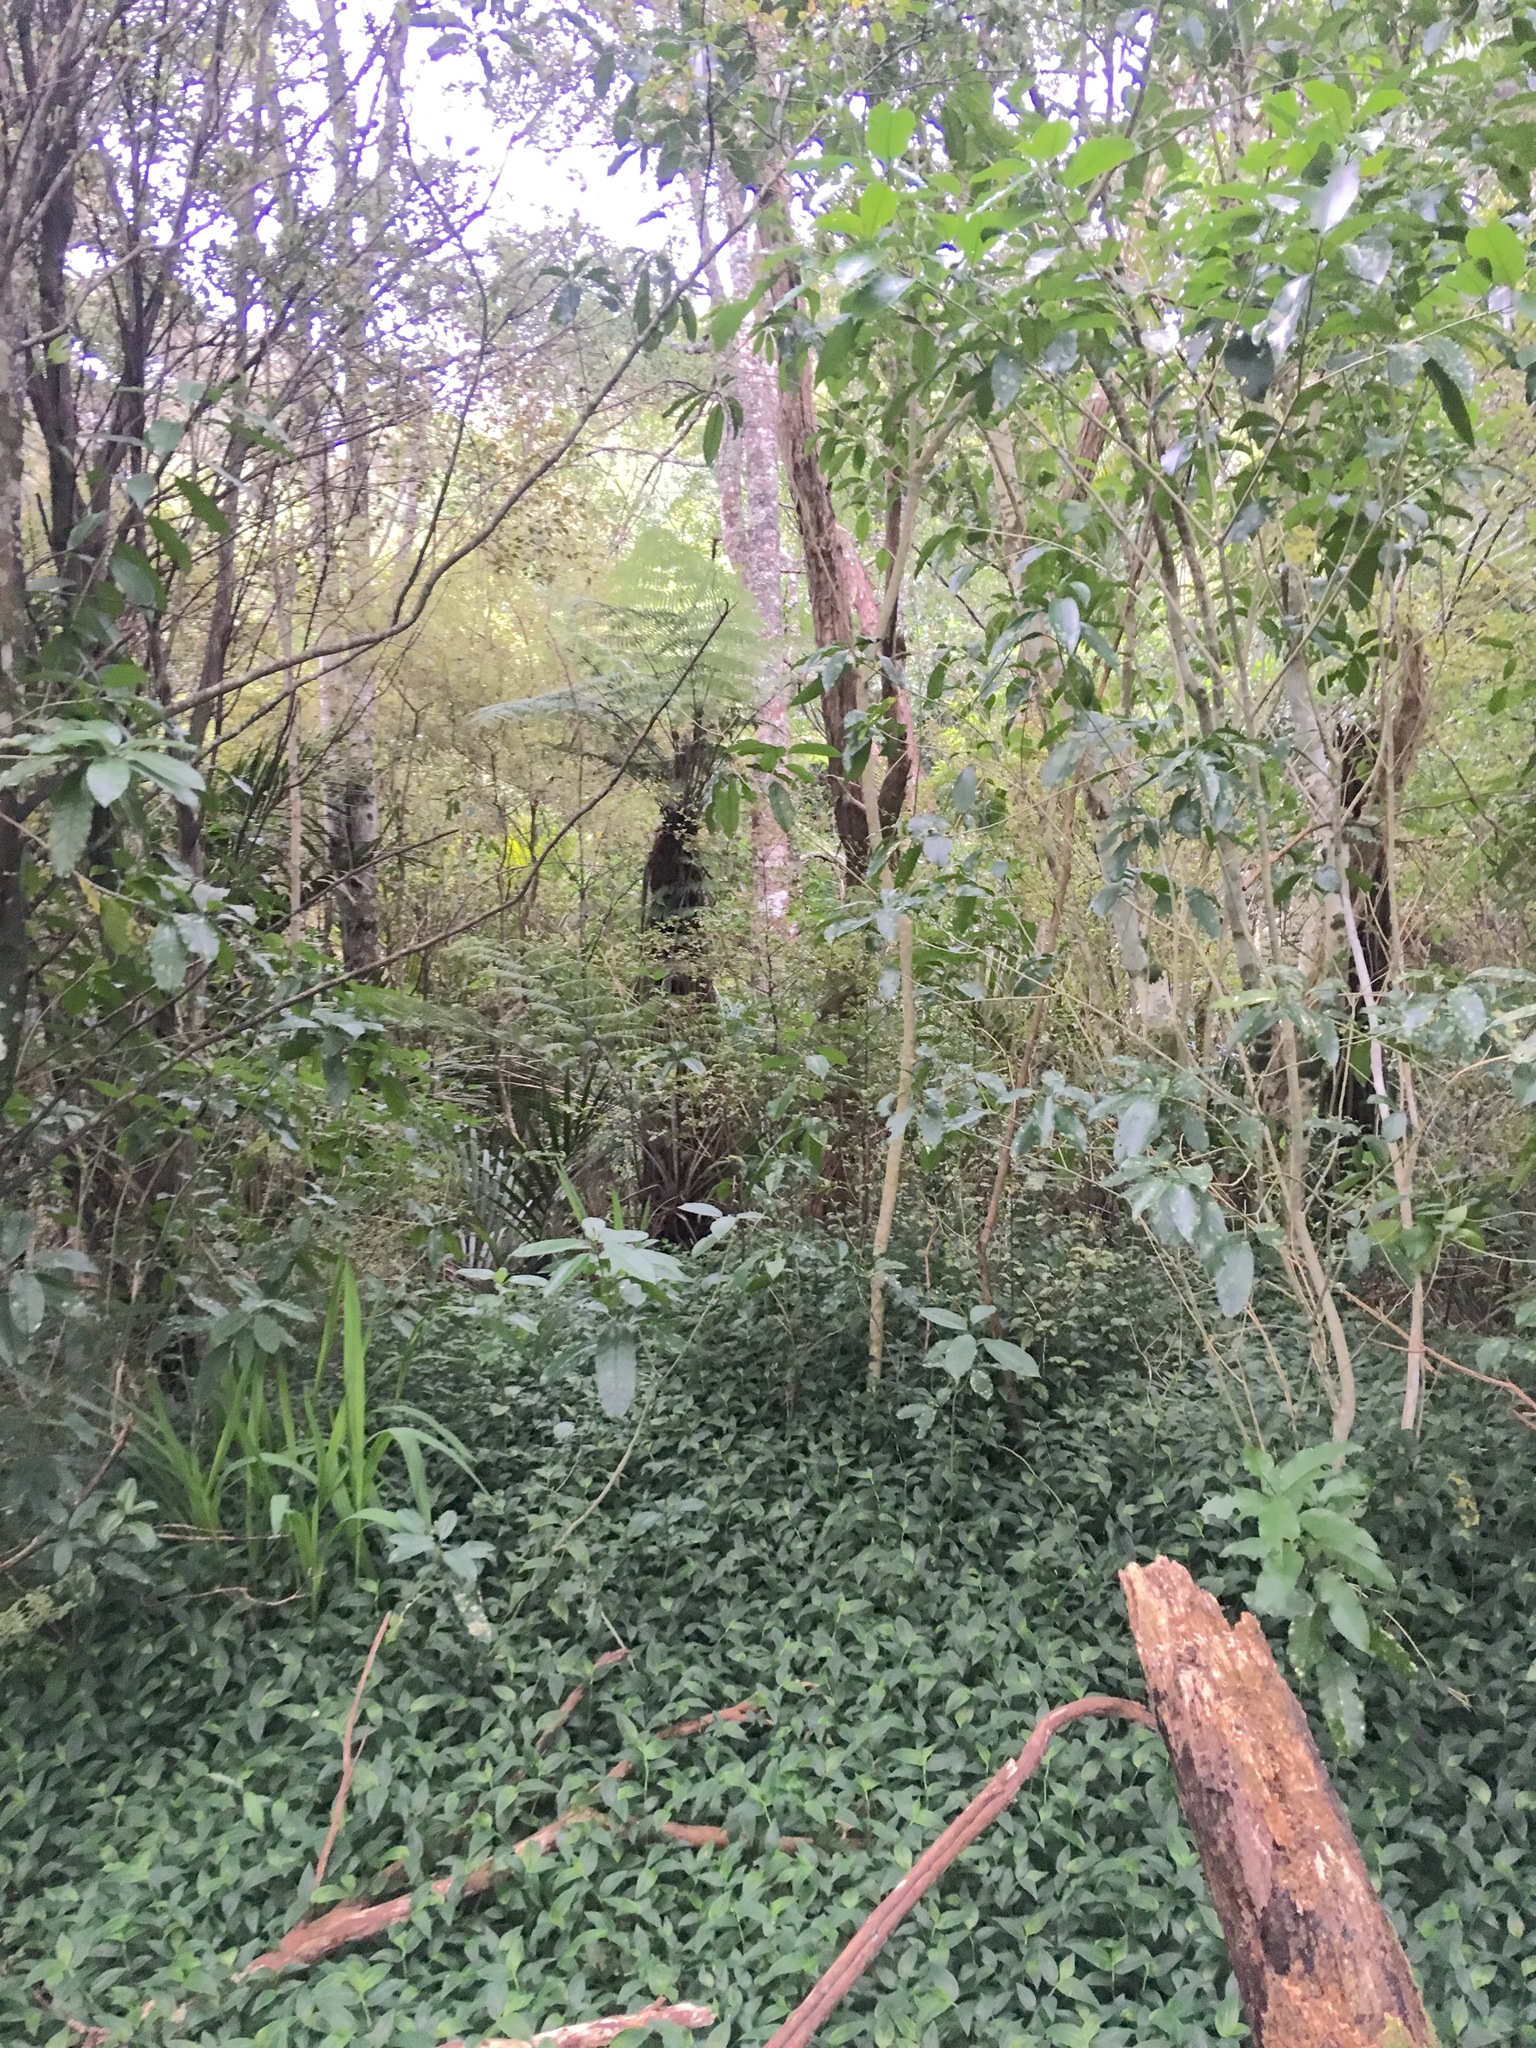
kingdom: Plantae
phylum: Tracheophyta
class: Liliopsida
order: Commelinales
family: Commelinaceae
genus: Tradescantia
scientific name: Tradescantia fluminensis
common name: Wandering-jew
